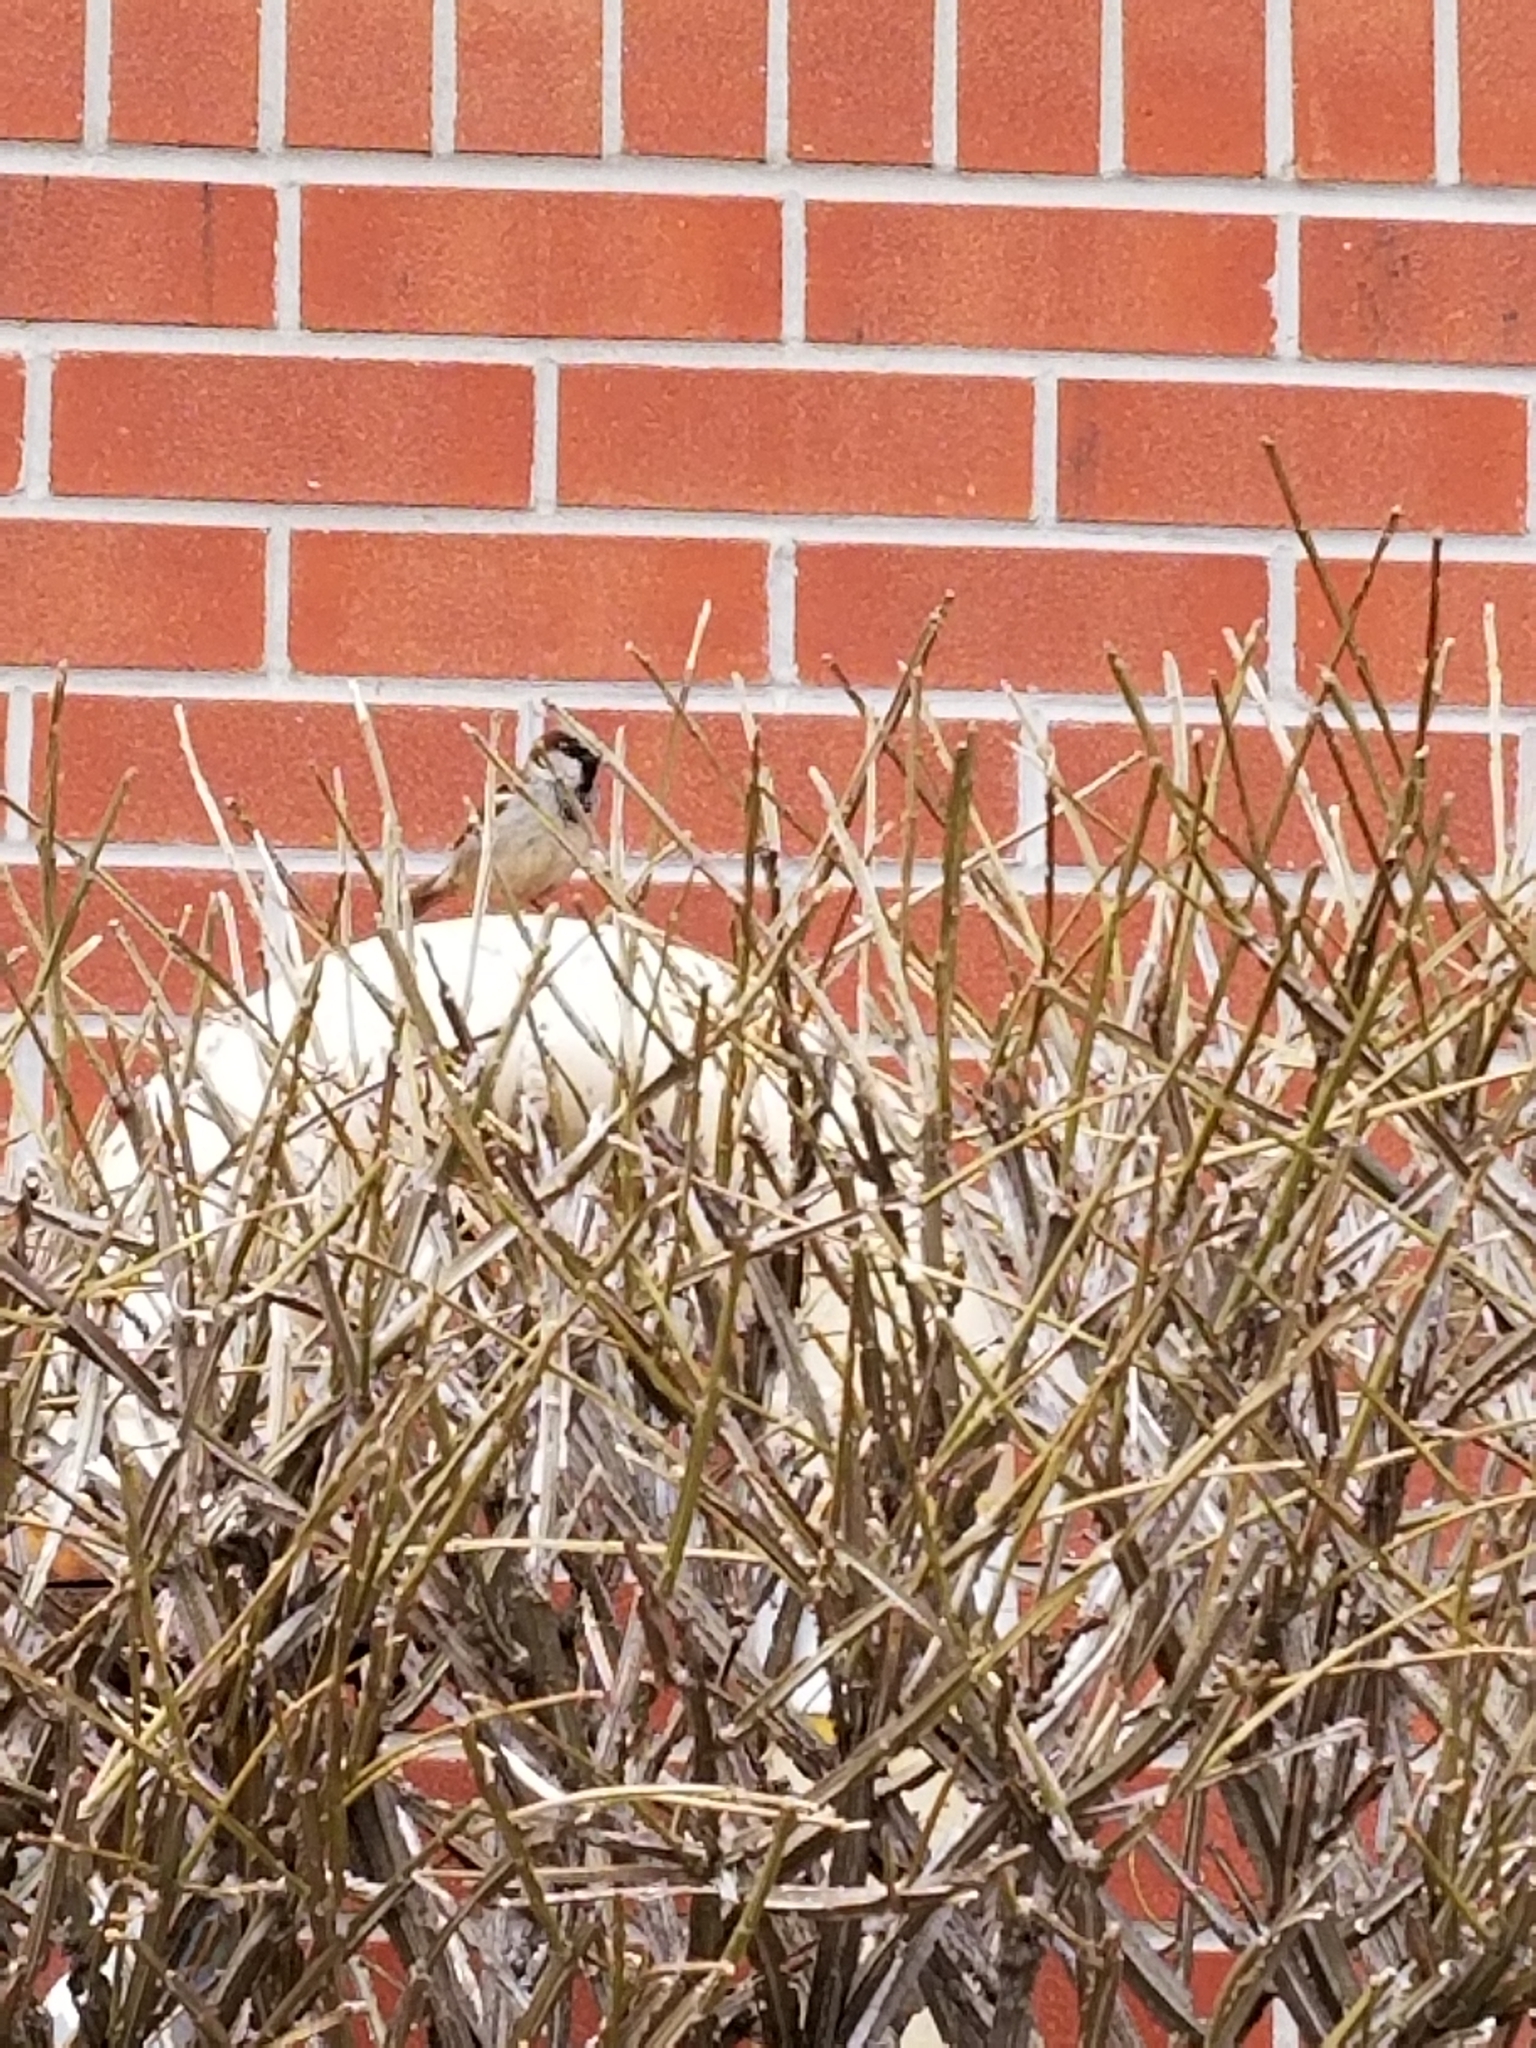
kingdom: Animalia
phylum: Chordata
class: Aves
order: Passeriformes
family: Passeridae
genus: Passer
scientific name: Passer domesticus
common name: House sparrow
